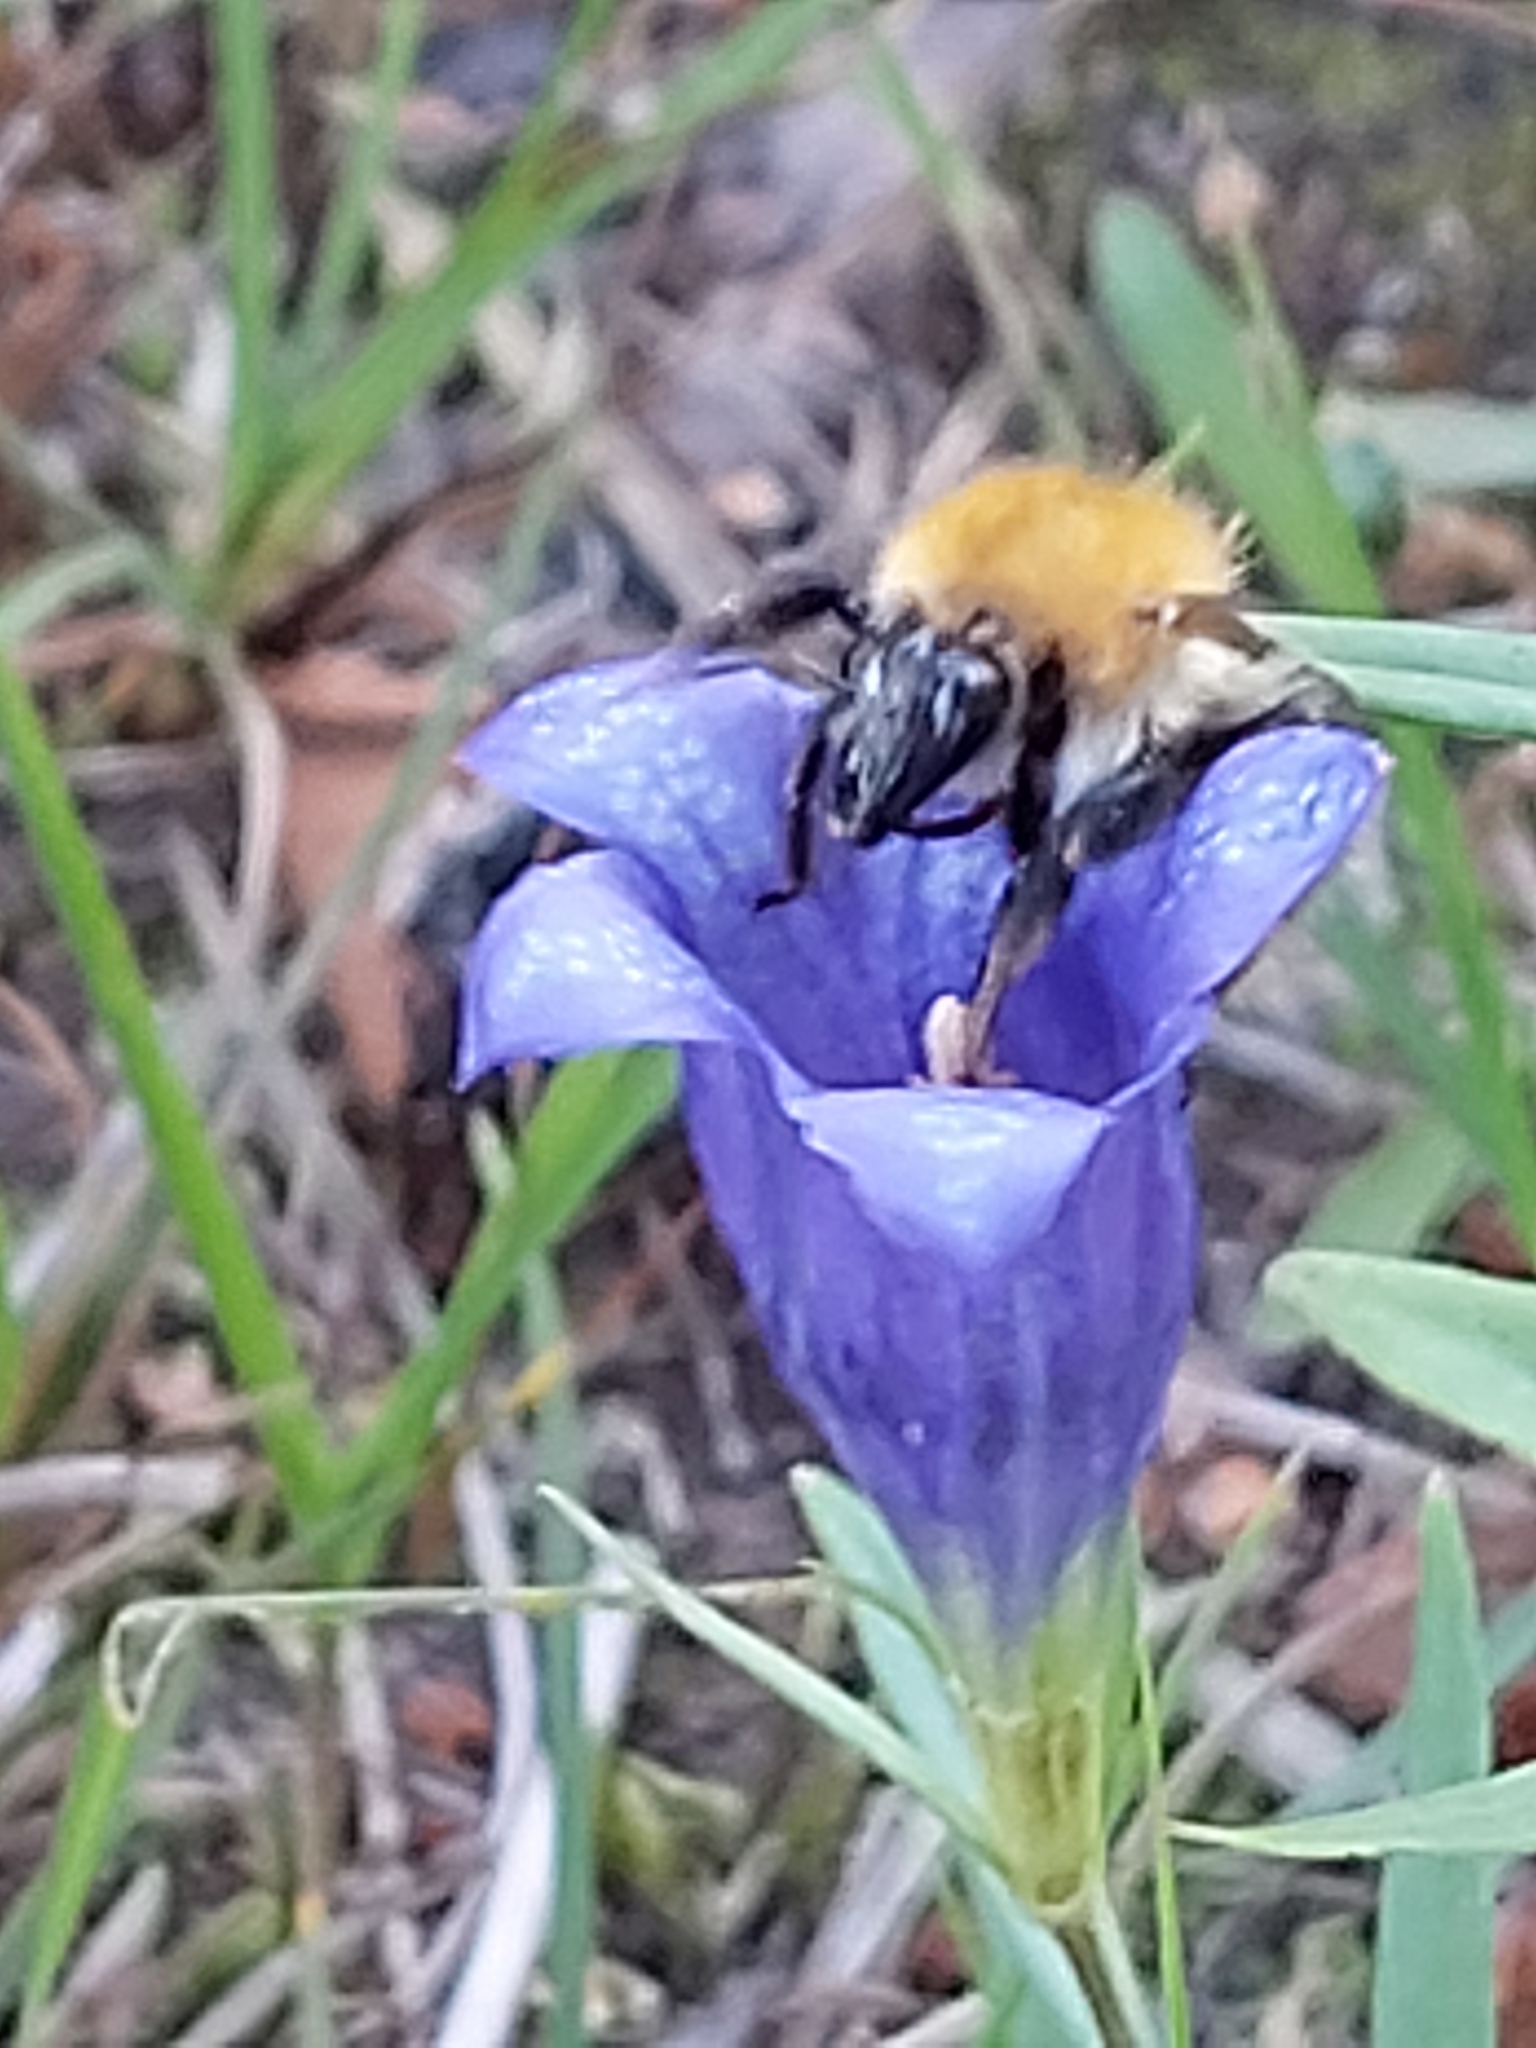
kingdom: Animalia
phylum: Arthropoda
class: Insecta
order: Hymenoptera
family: Apidae
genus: Bombus
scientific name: Bombus pascuorum
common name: Common carder bee
